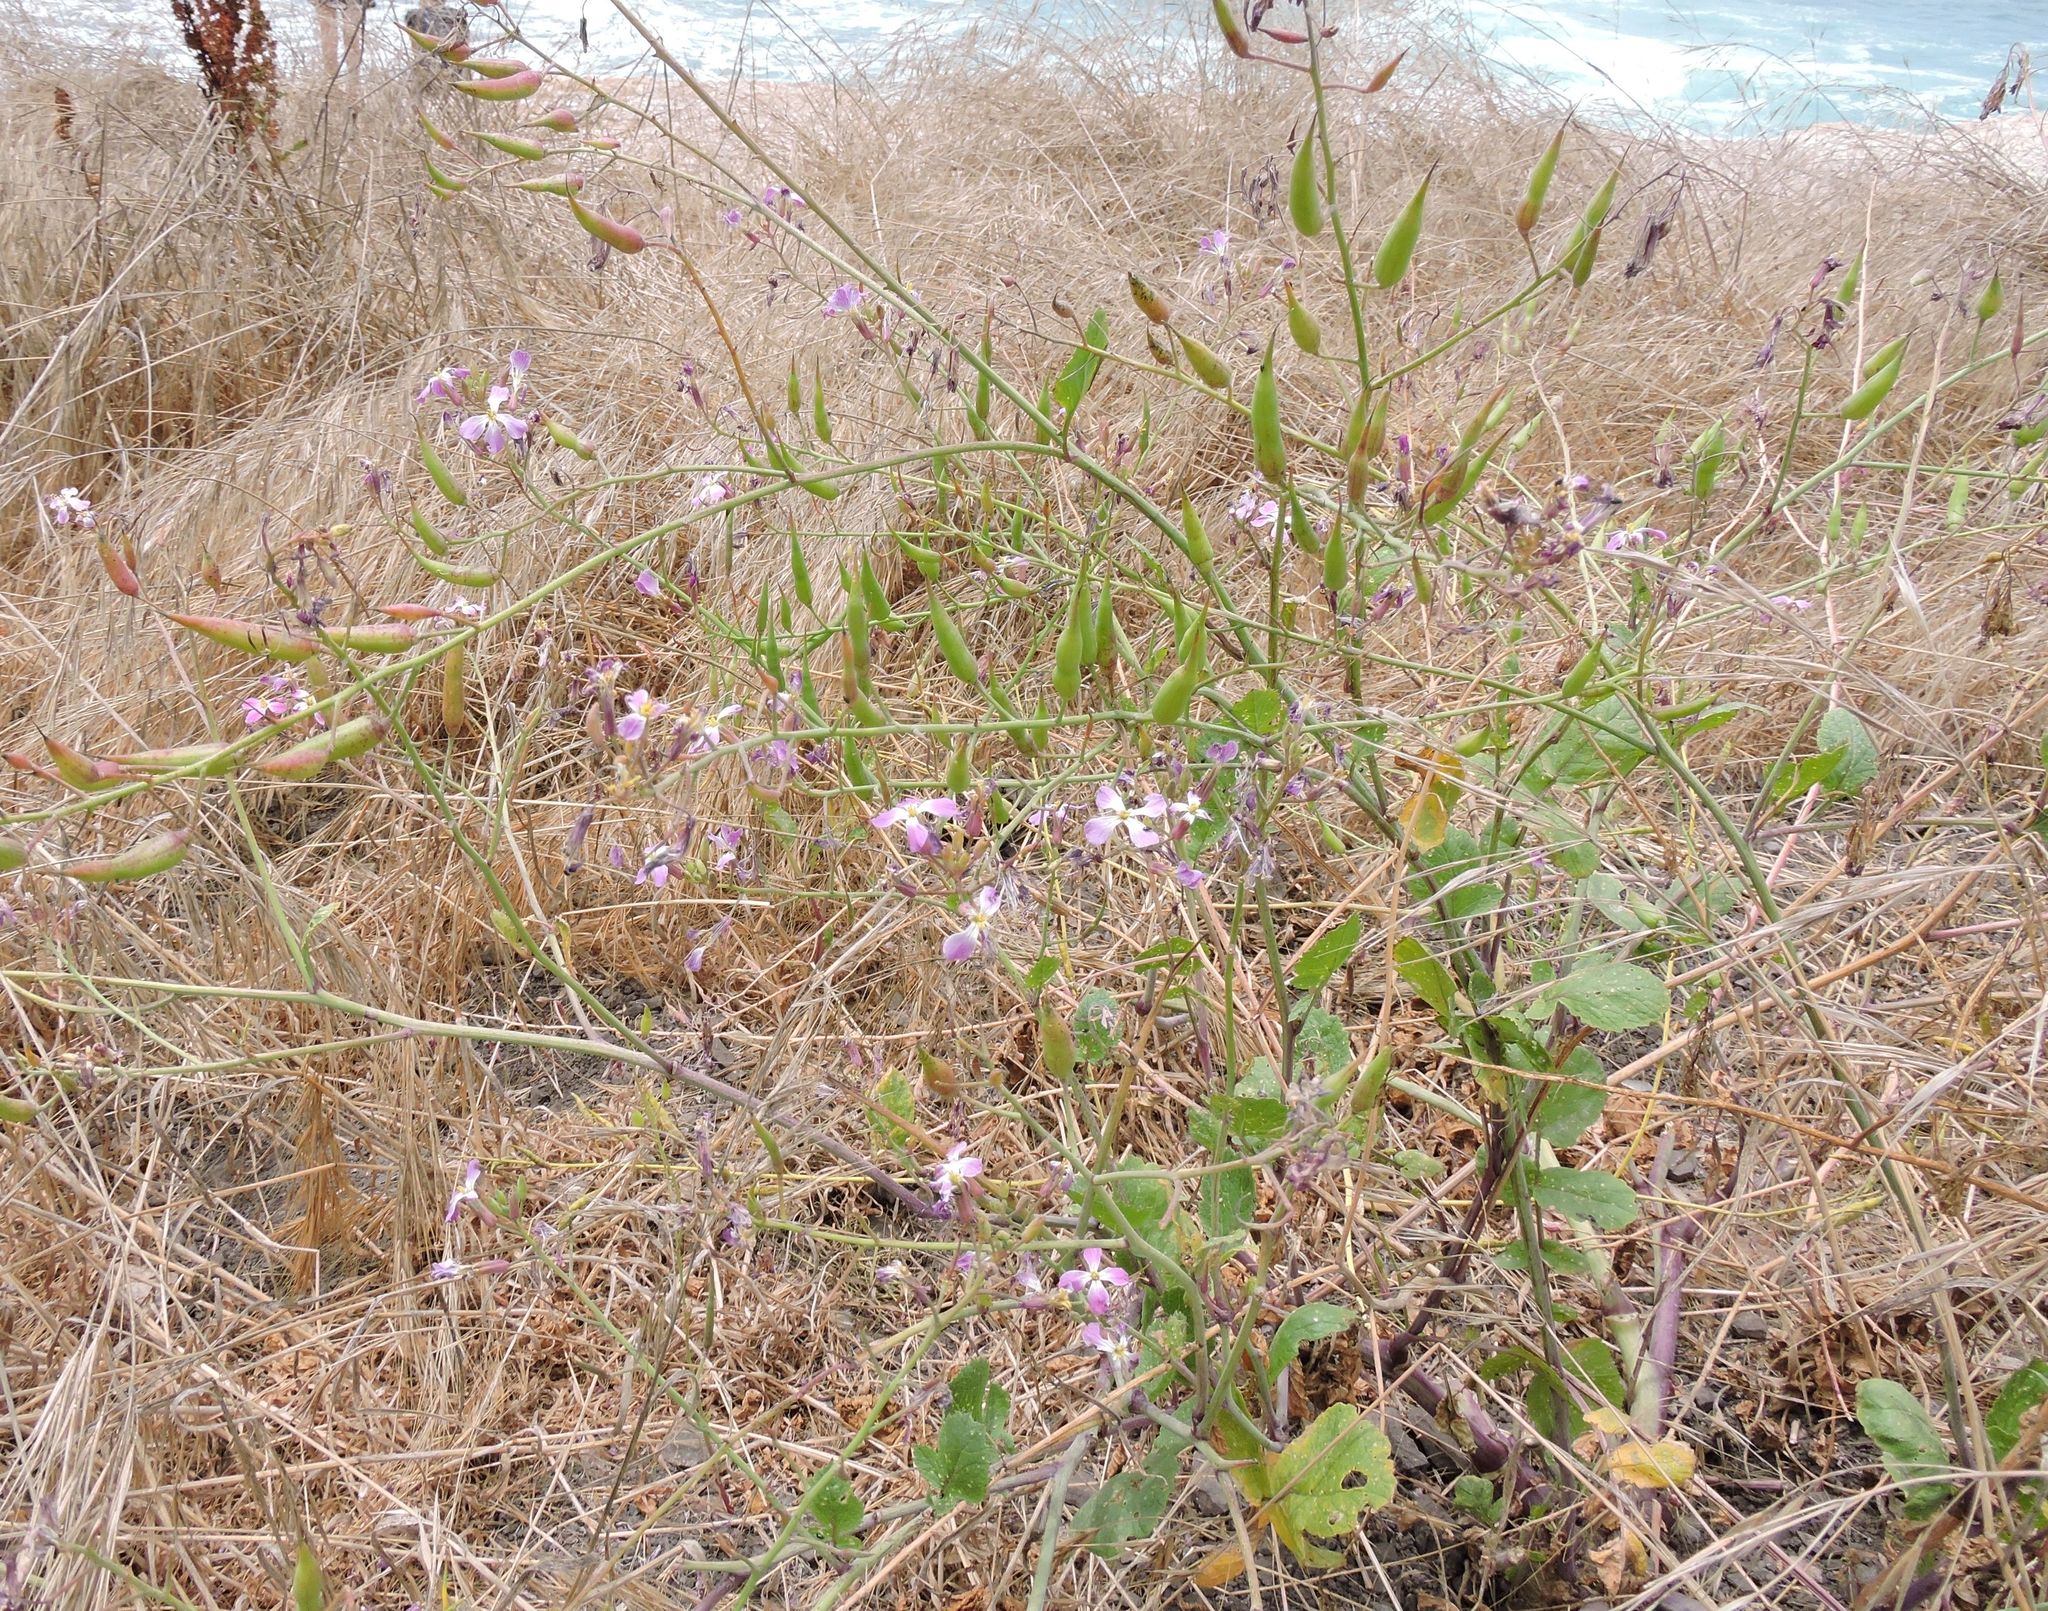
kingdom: Plantae
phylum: Tracheophyta
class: Magnoliopsida
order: Brassicales
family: Brassicaceae
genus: Raphanus
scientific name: Raphanus sativus
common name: Cultivated radish
